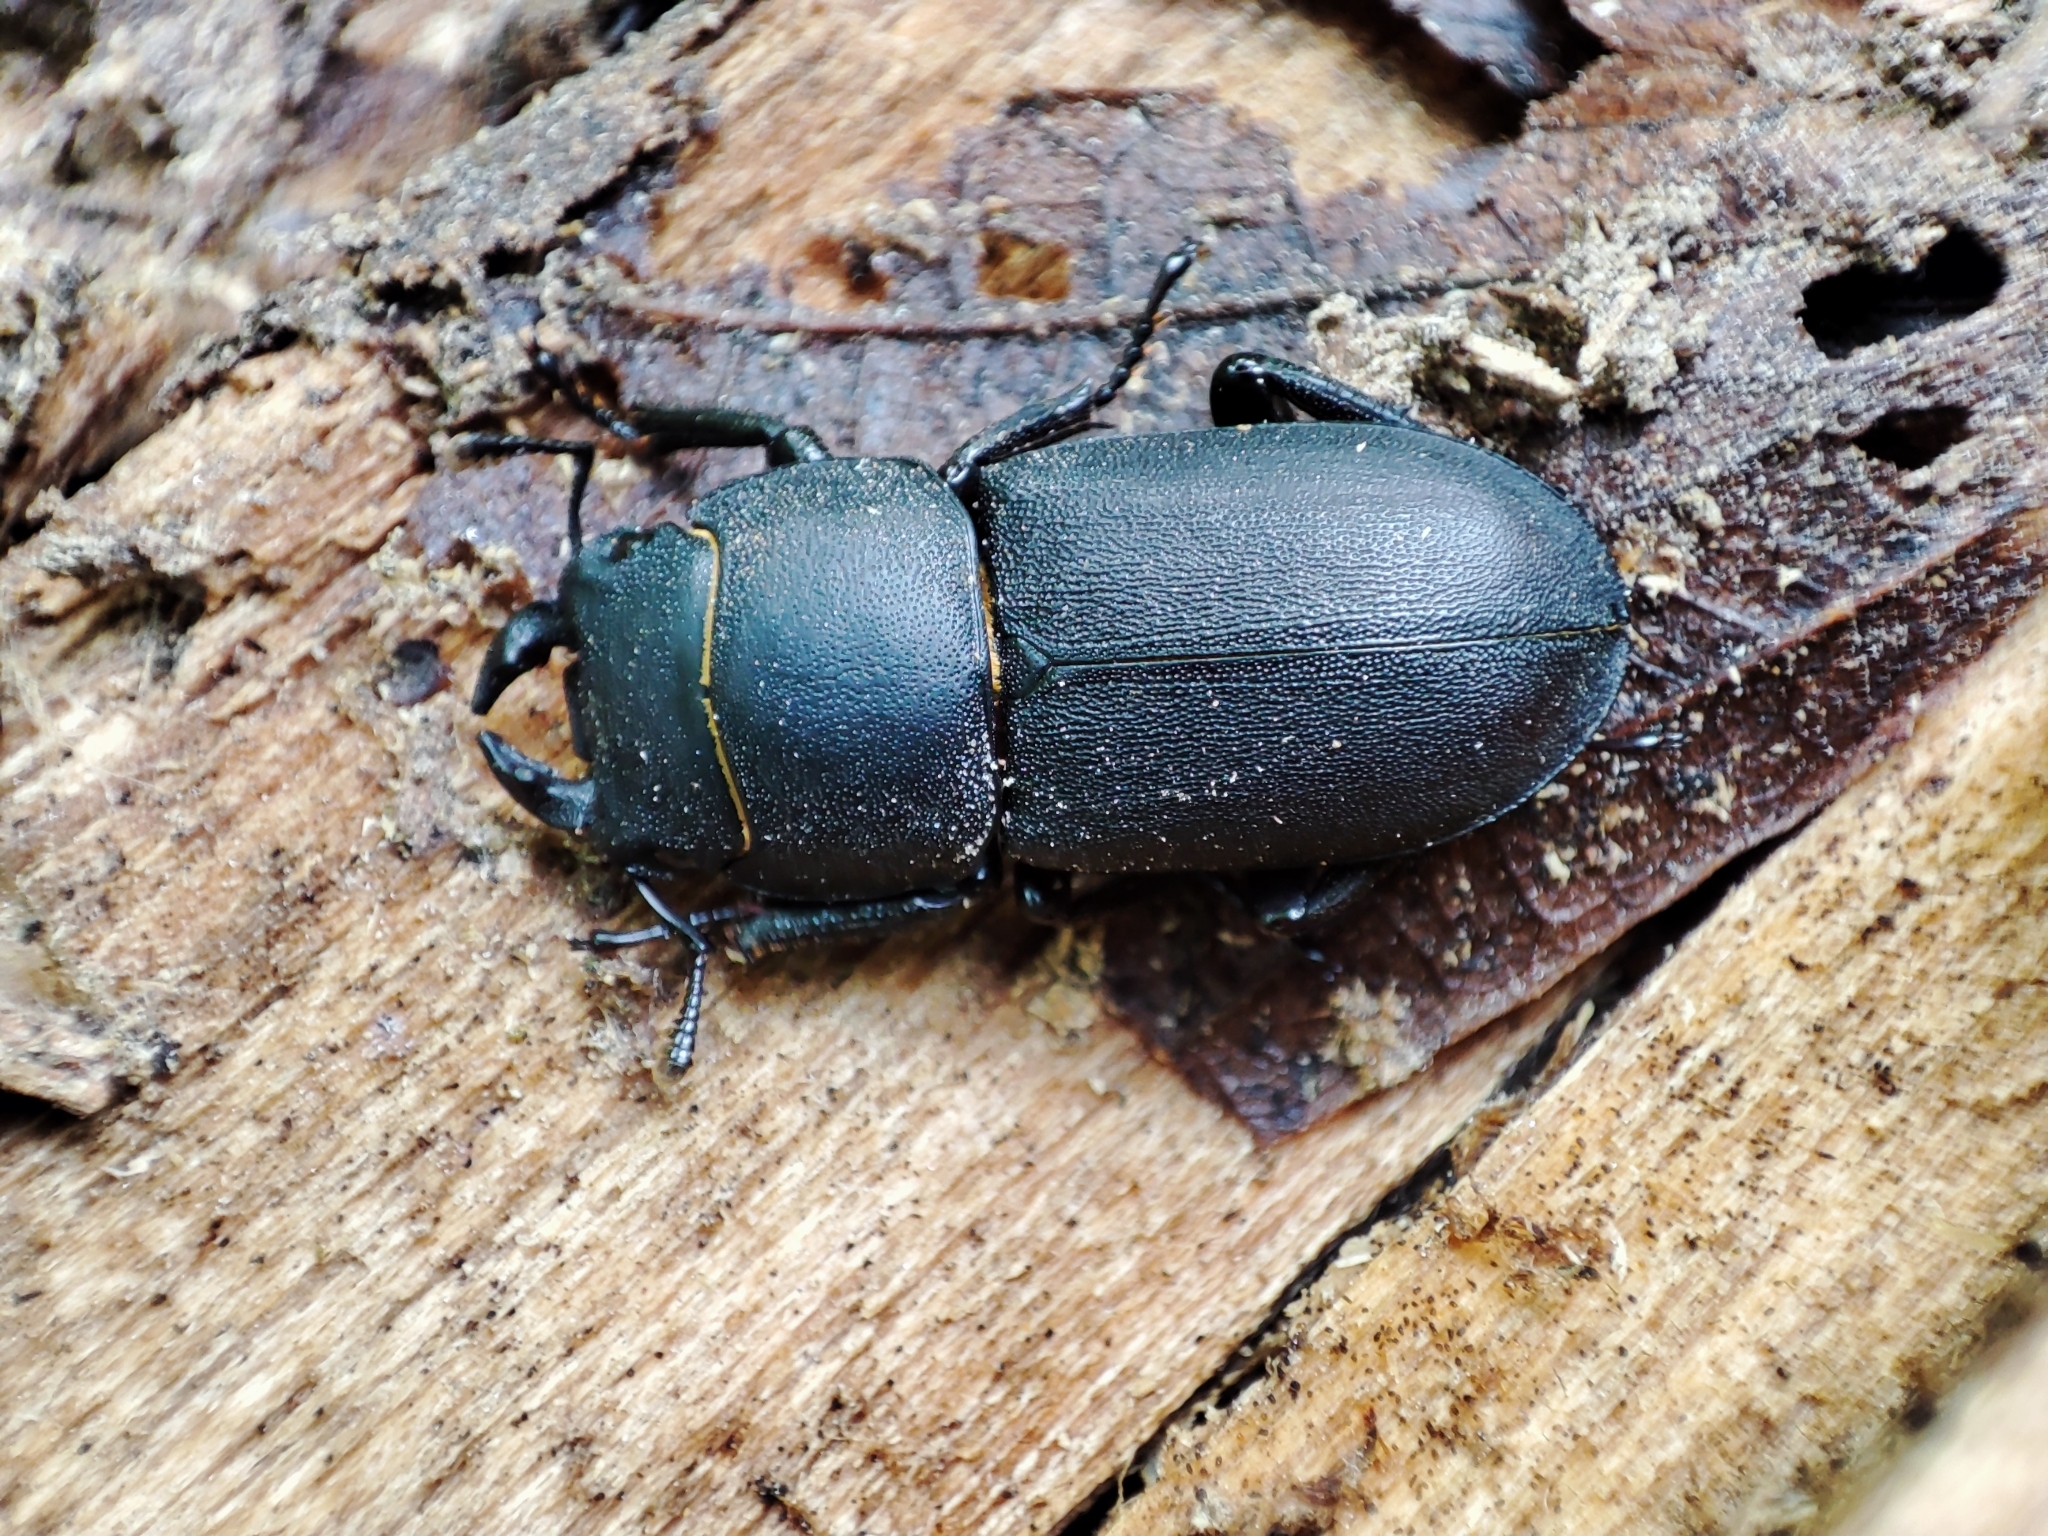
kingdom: Animalia
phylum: Arthropoda
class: Insecta
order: Coleoptera
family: Lucanidae
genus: Dorcus
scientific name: Dorcus parallelipipedus
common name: Lesser stag beetle
